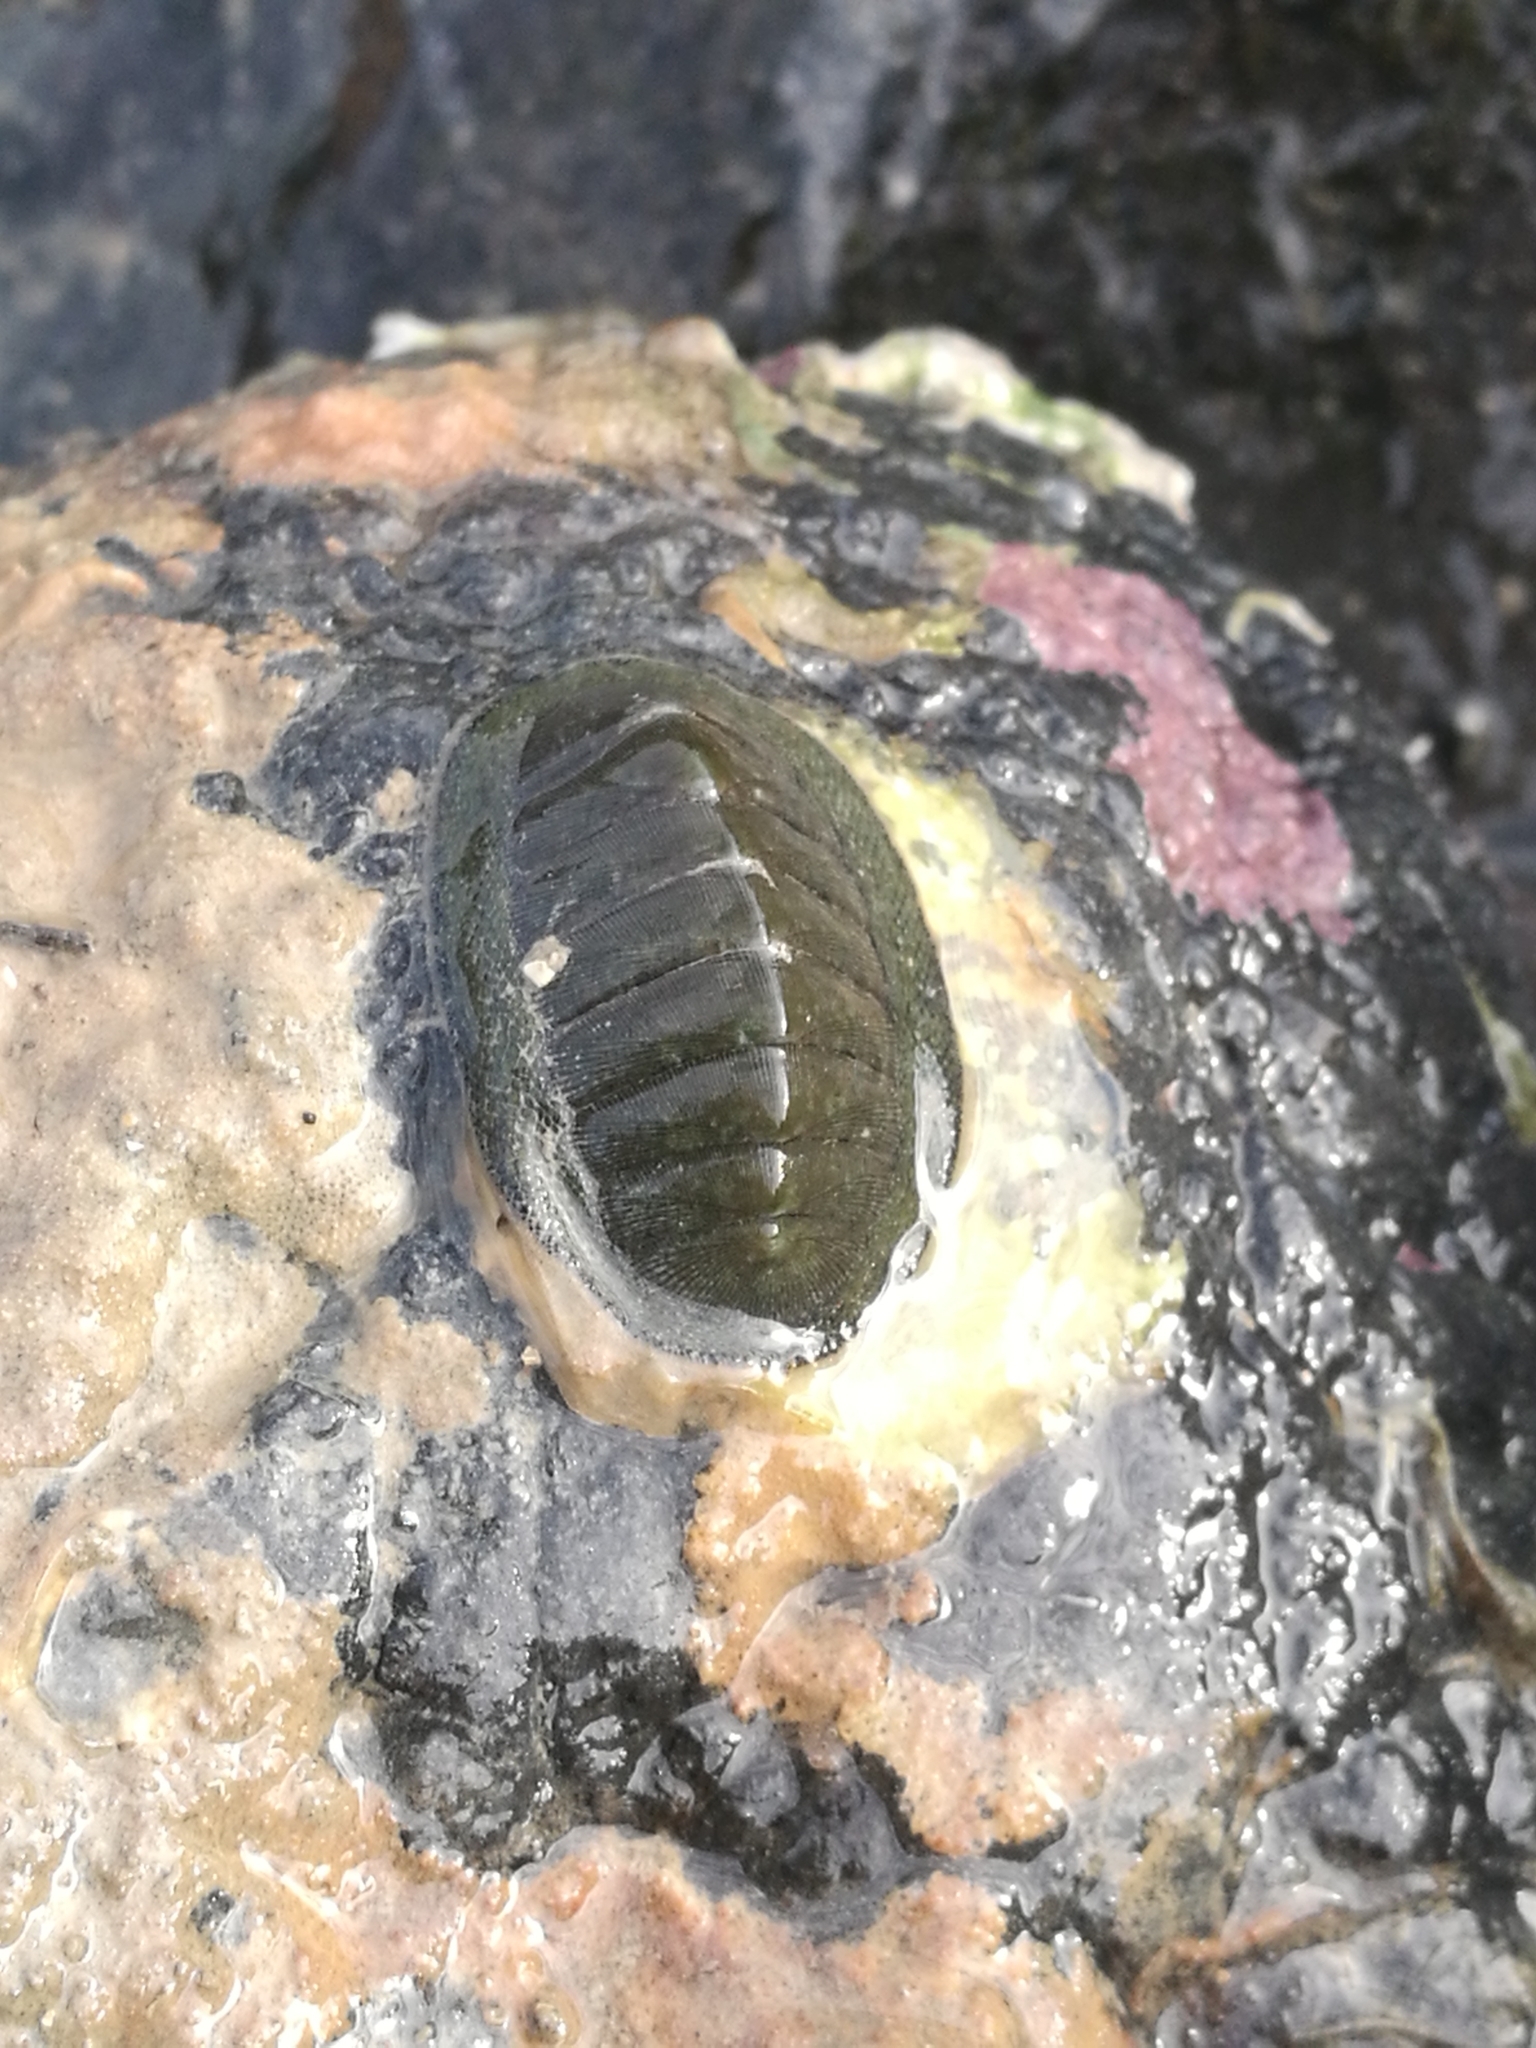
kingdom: Animalia
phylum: Mollusca
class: Polyplacophora
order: Chitonida
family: Chitonidae
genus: Chiton
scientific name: Chiton glaucus
